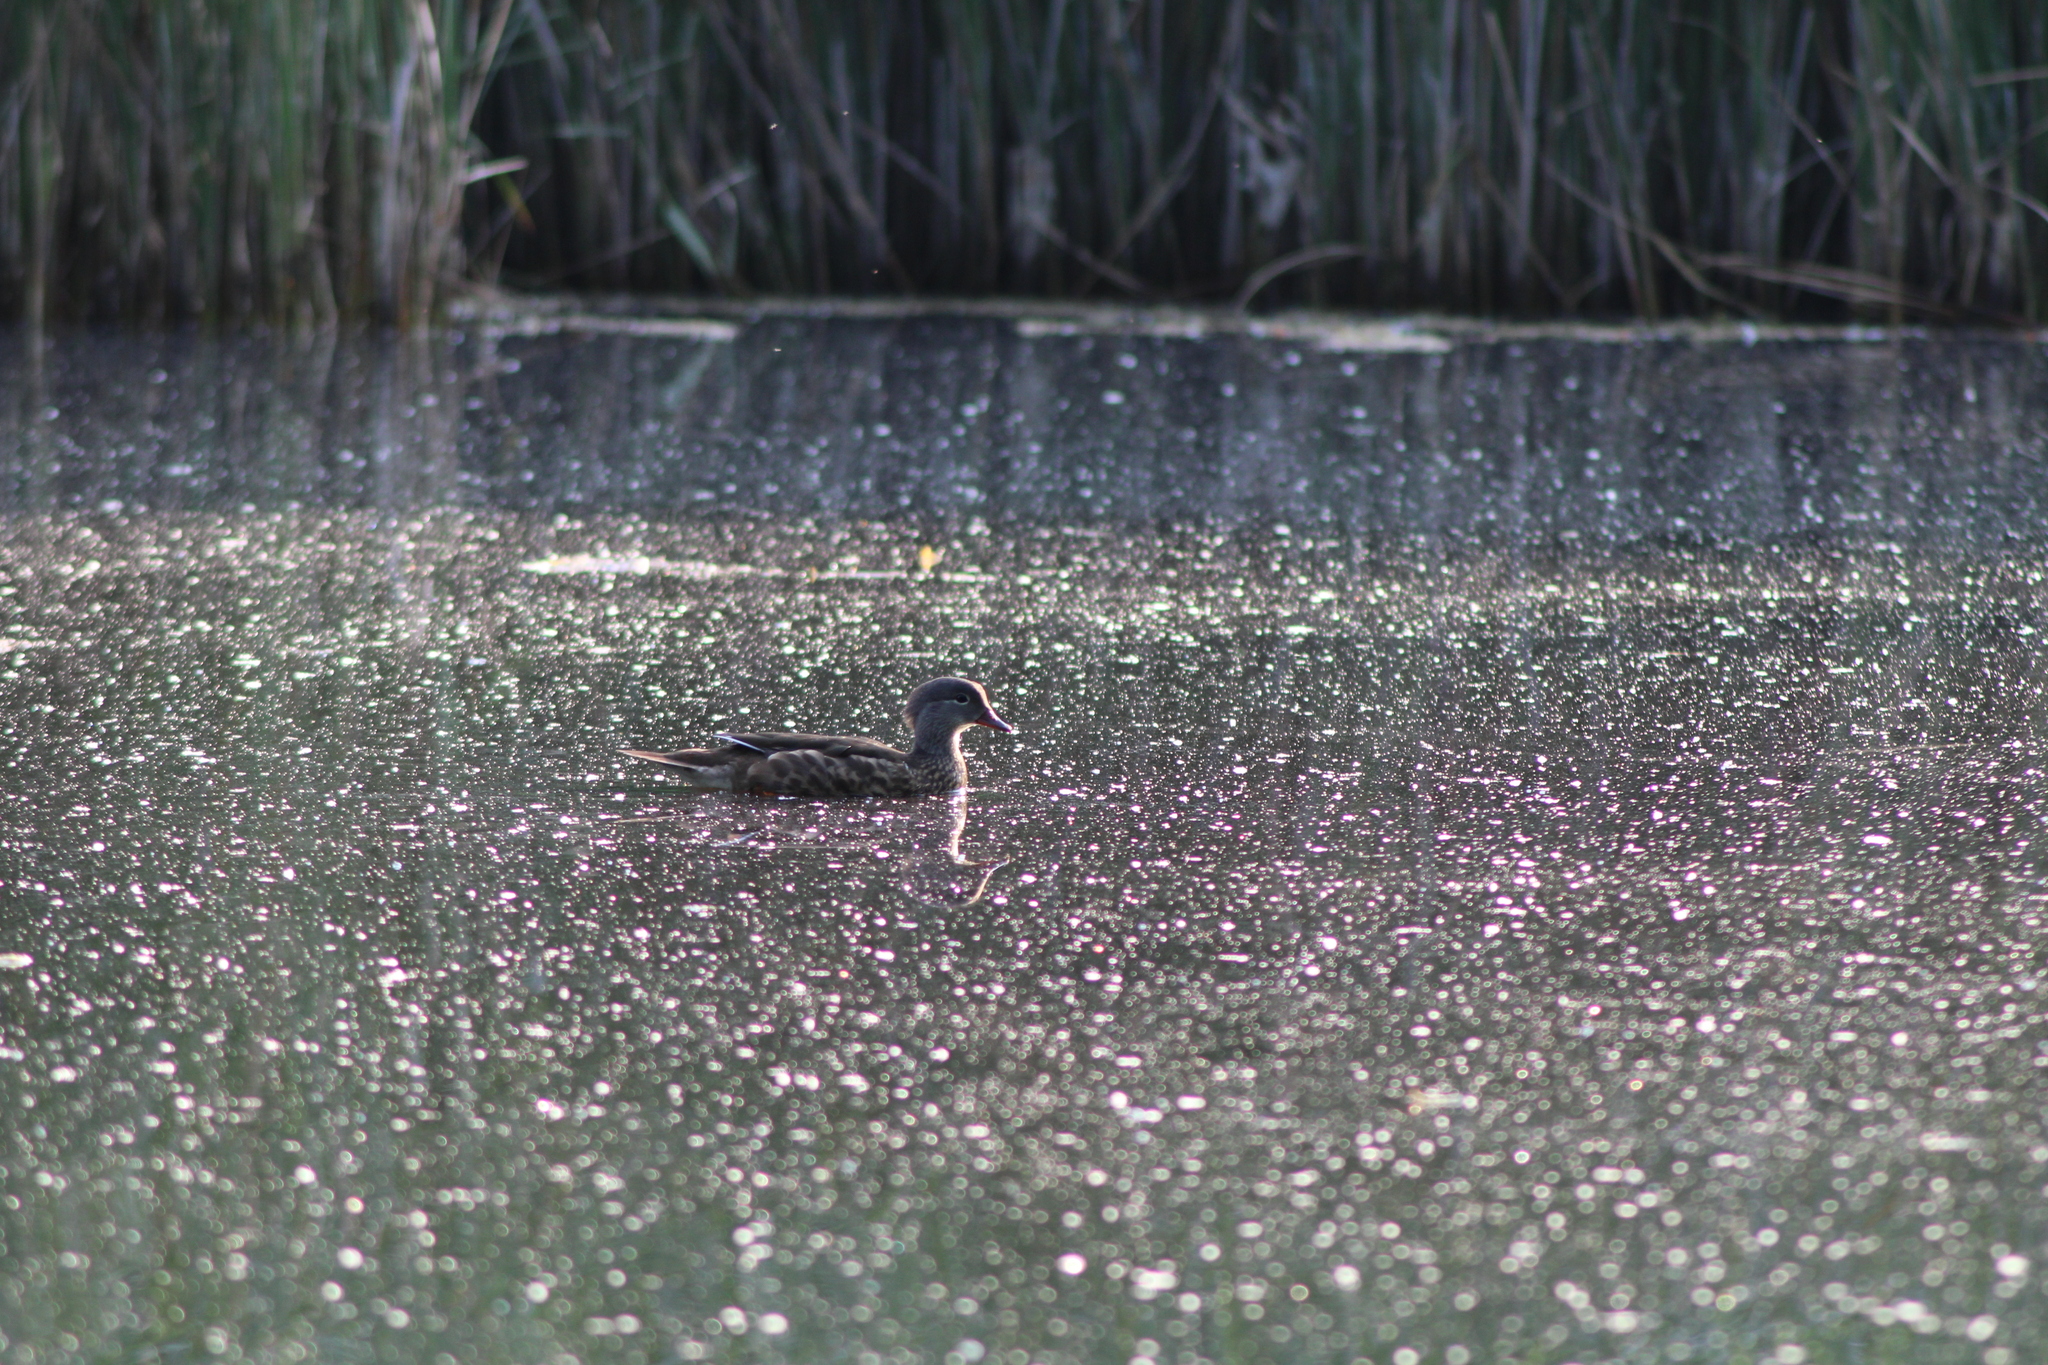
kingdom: Animalia
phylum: Chordata
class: Aves
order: Anseriformes
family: Anatidae
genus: Aix
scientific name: Aix galericulata
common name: Mandarin duck
